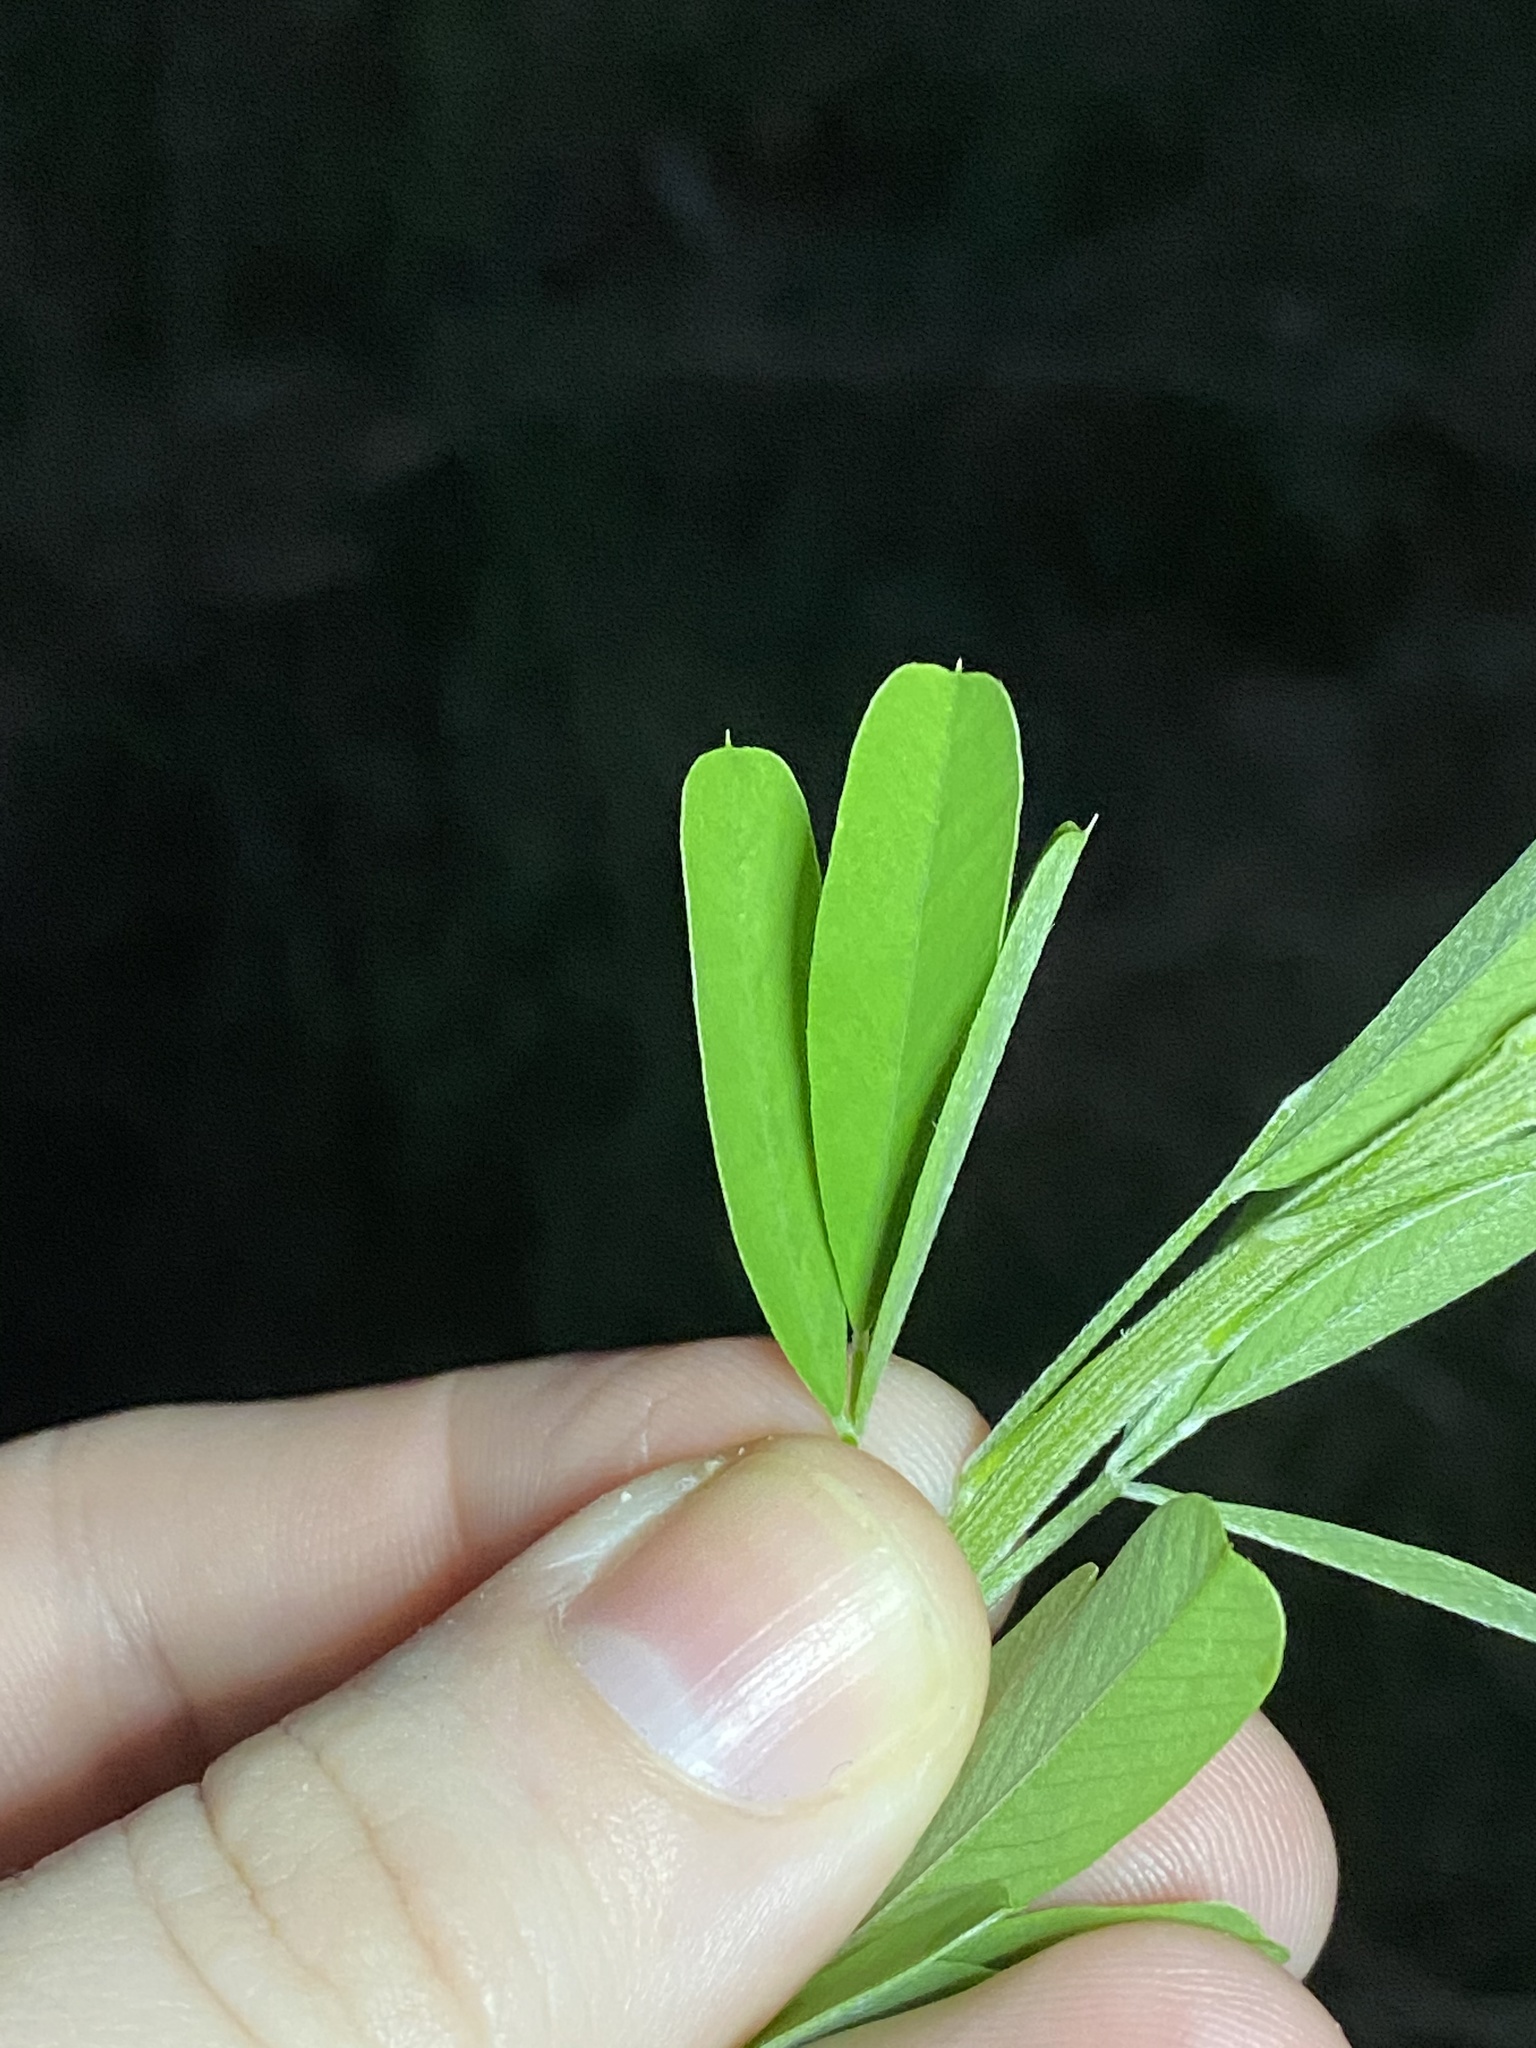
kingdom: Plantae
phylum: Tracheophyta
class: Magnoliopsida
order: Fabales
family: Fabaceae
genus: Lespedeza
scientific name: Lespedeza cuneata
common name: Chinese bush-clover
